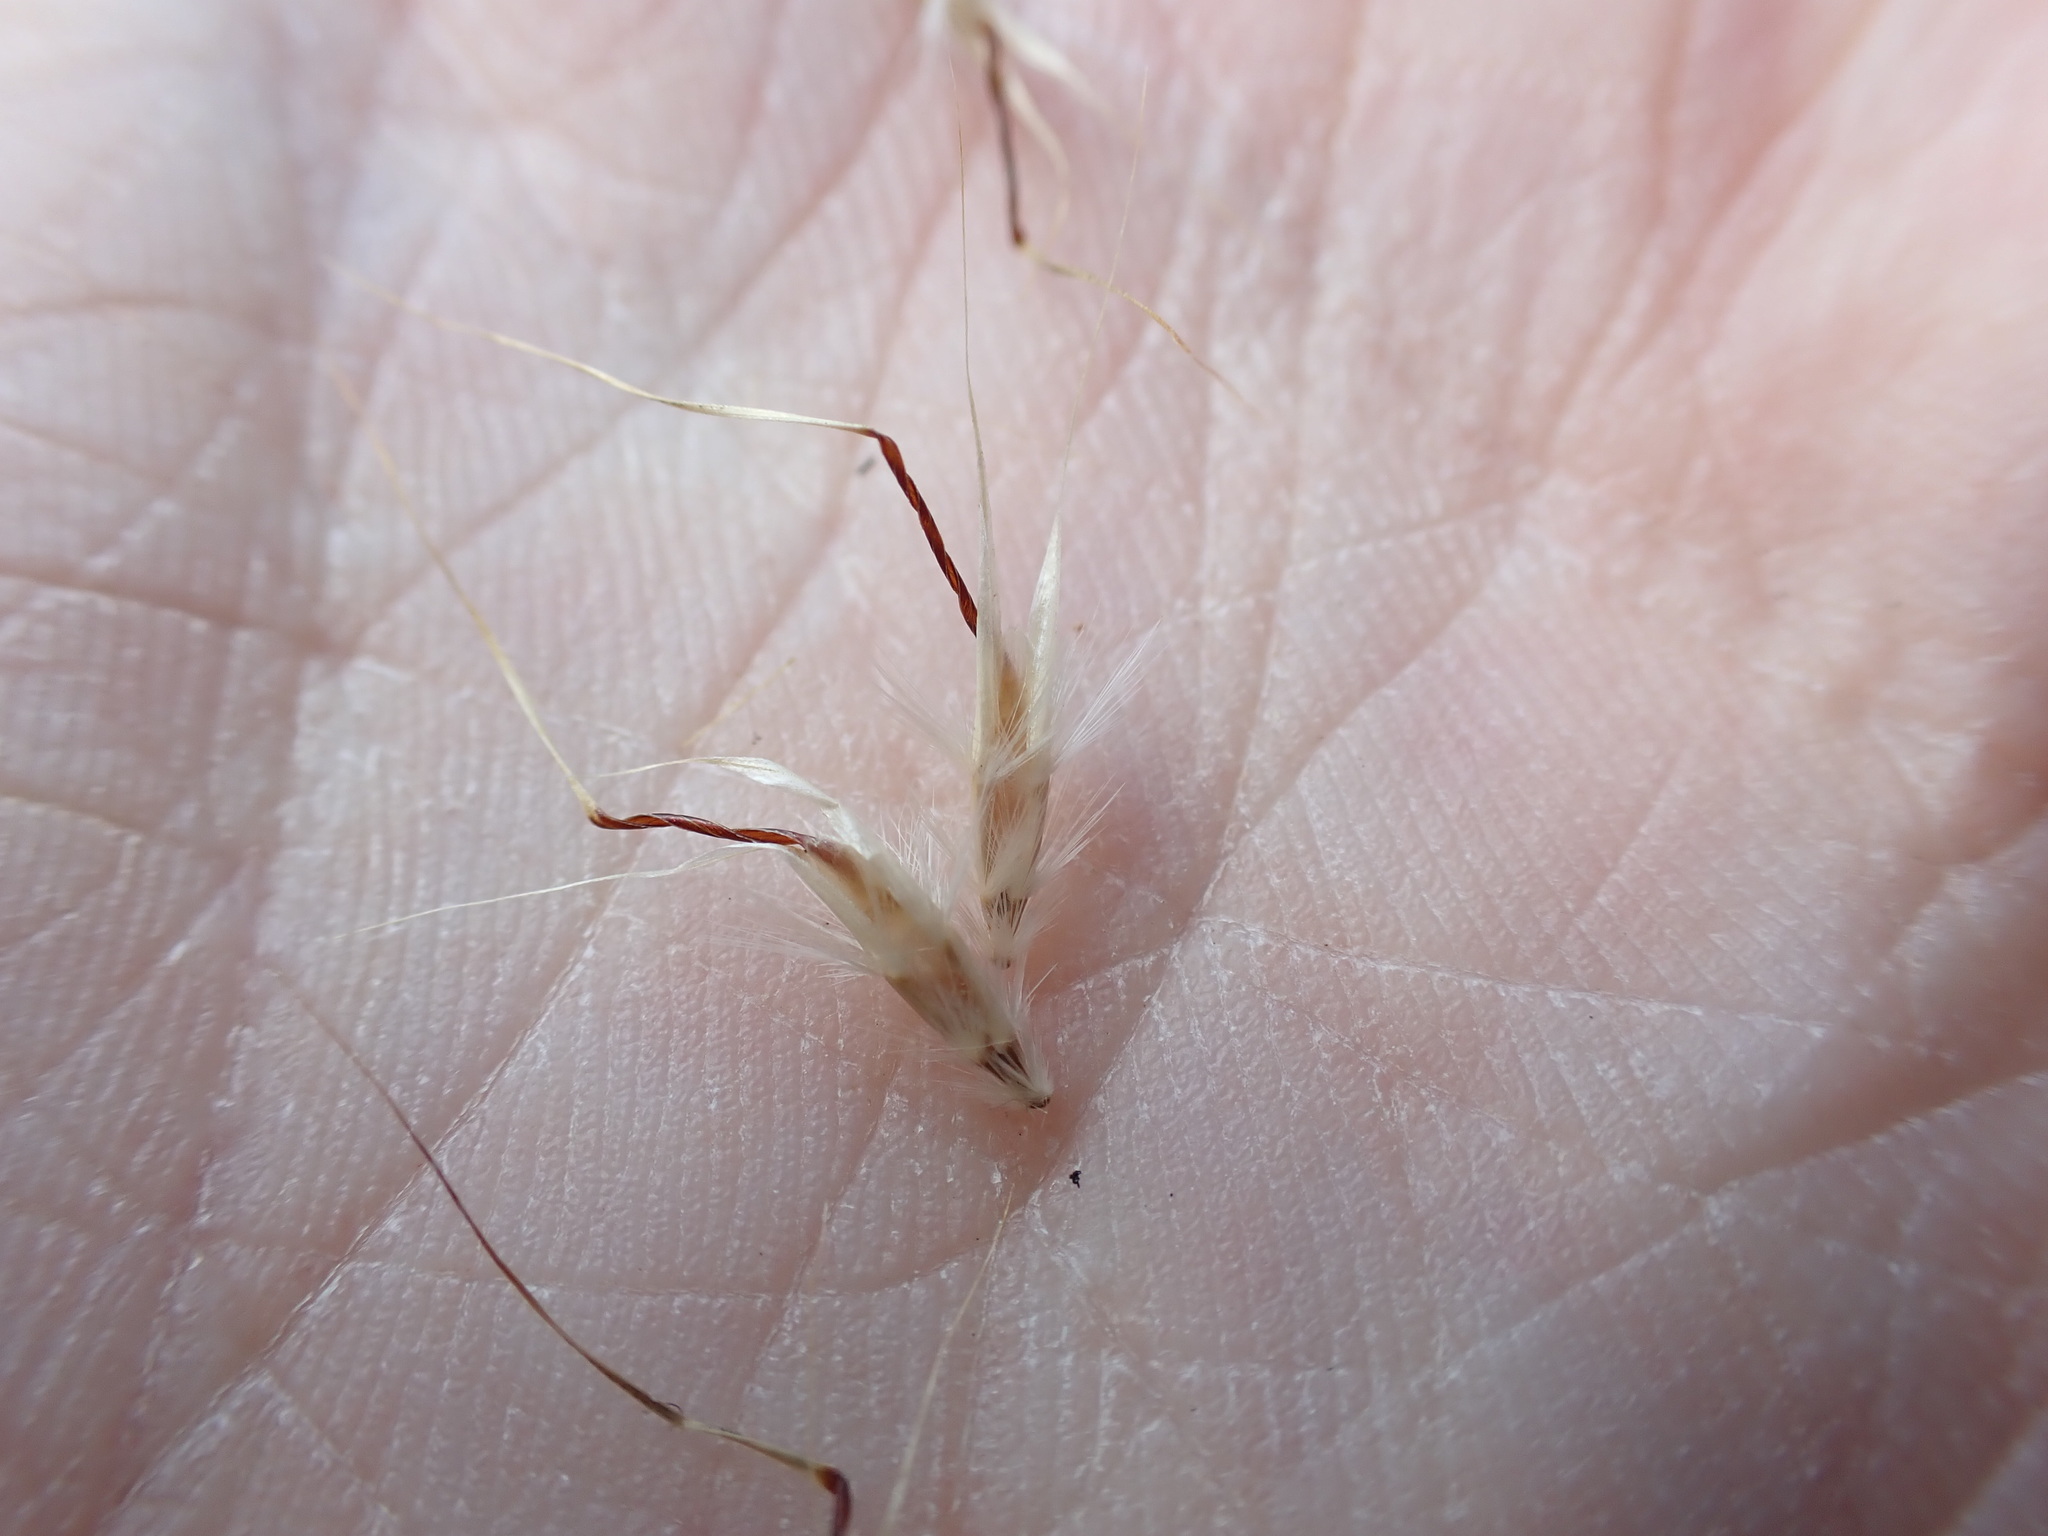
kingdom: Plantae
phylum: Tracheophyta
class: Liliopsida
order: Poales
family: Poaceae
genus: Rytidosperma
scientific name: Rytidosperma caespitosum
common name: Tufted wallaby grass
